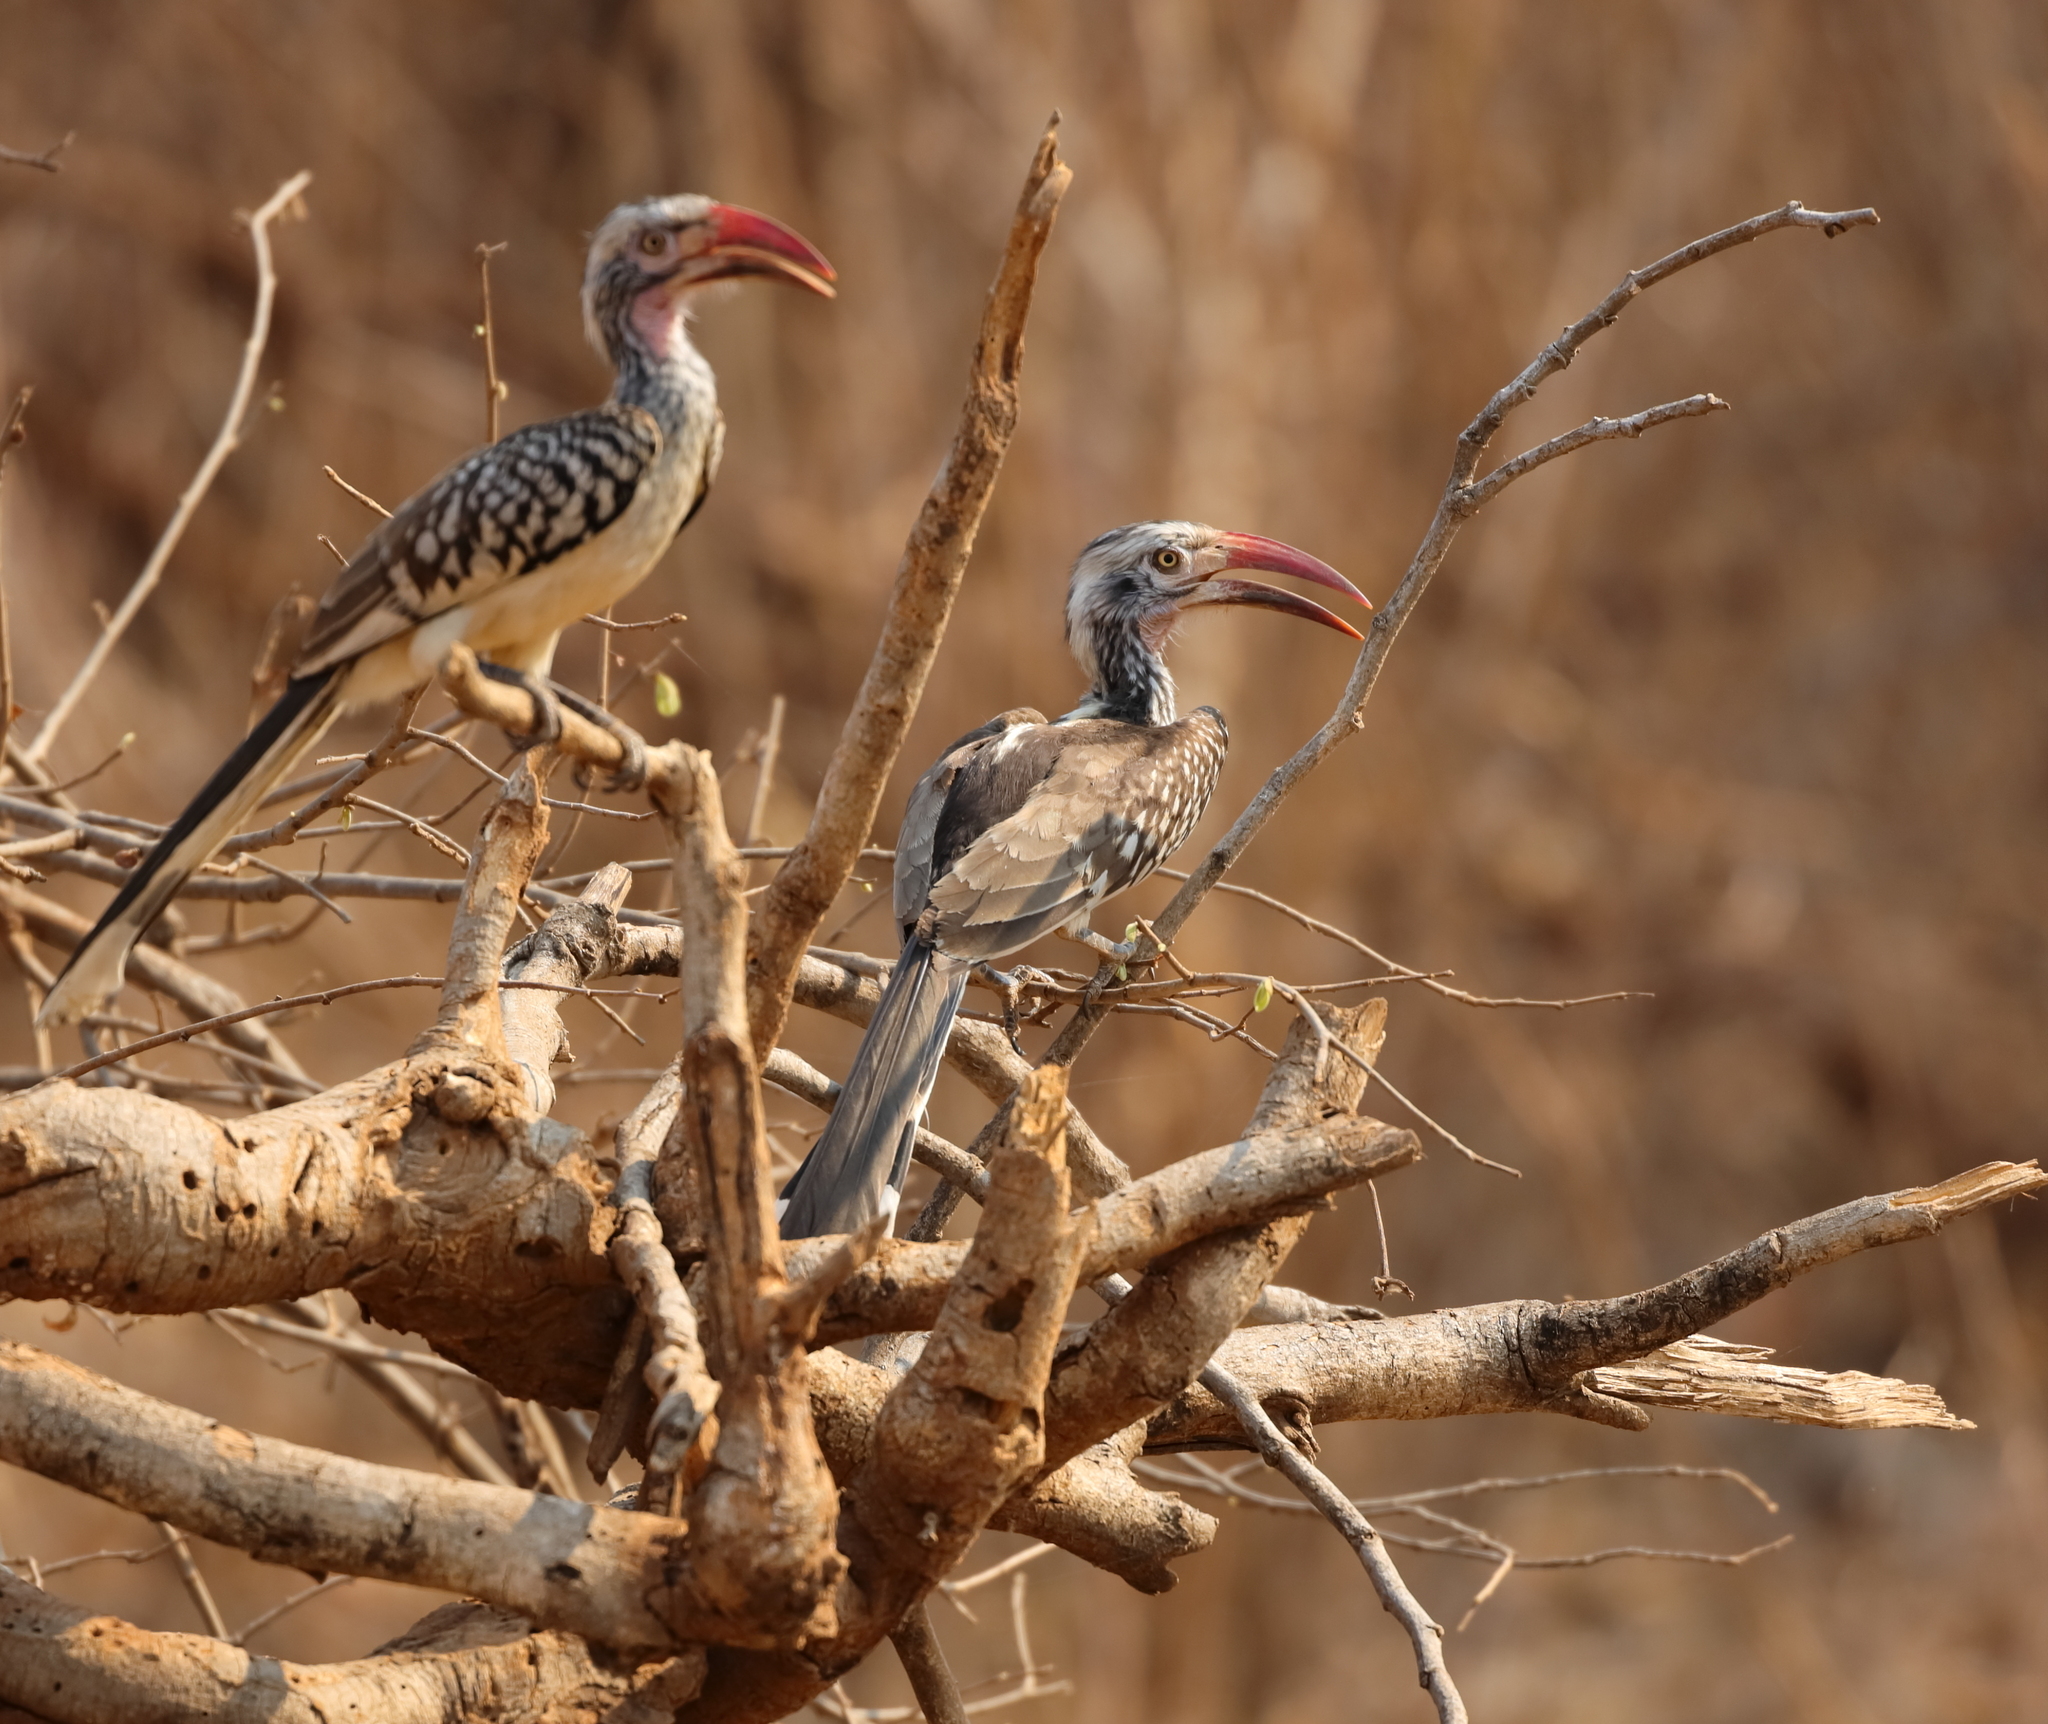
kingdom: Animalia
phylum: Chordata
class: Aves
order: Bucerotiformes
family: Bucerotidae
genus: Tockus
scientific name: Tockus rufirostris
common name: Southern red-billed hornbill
